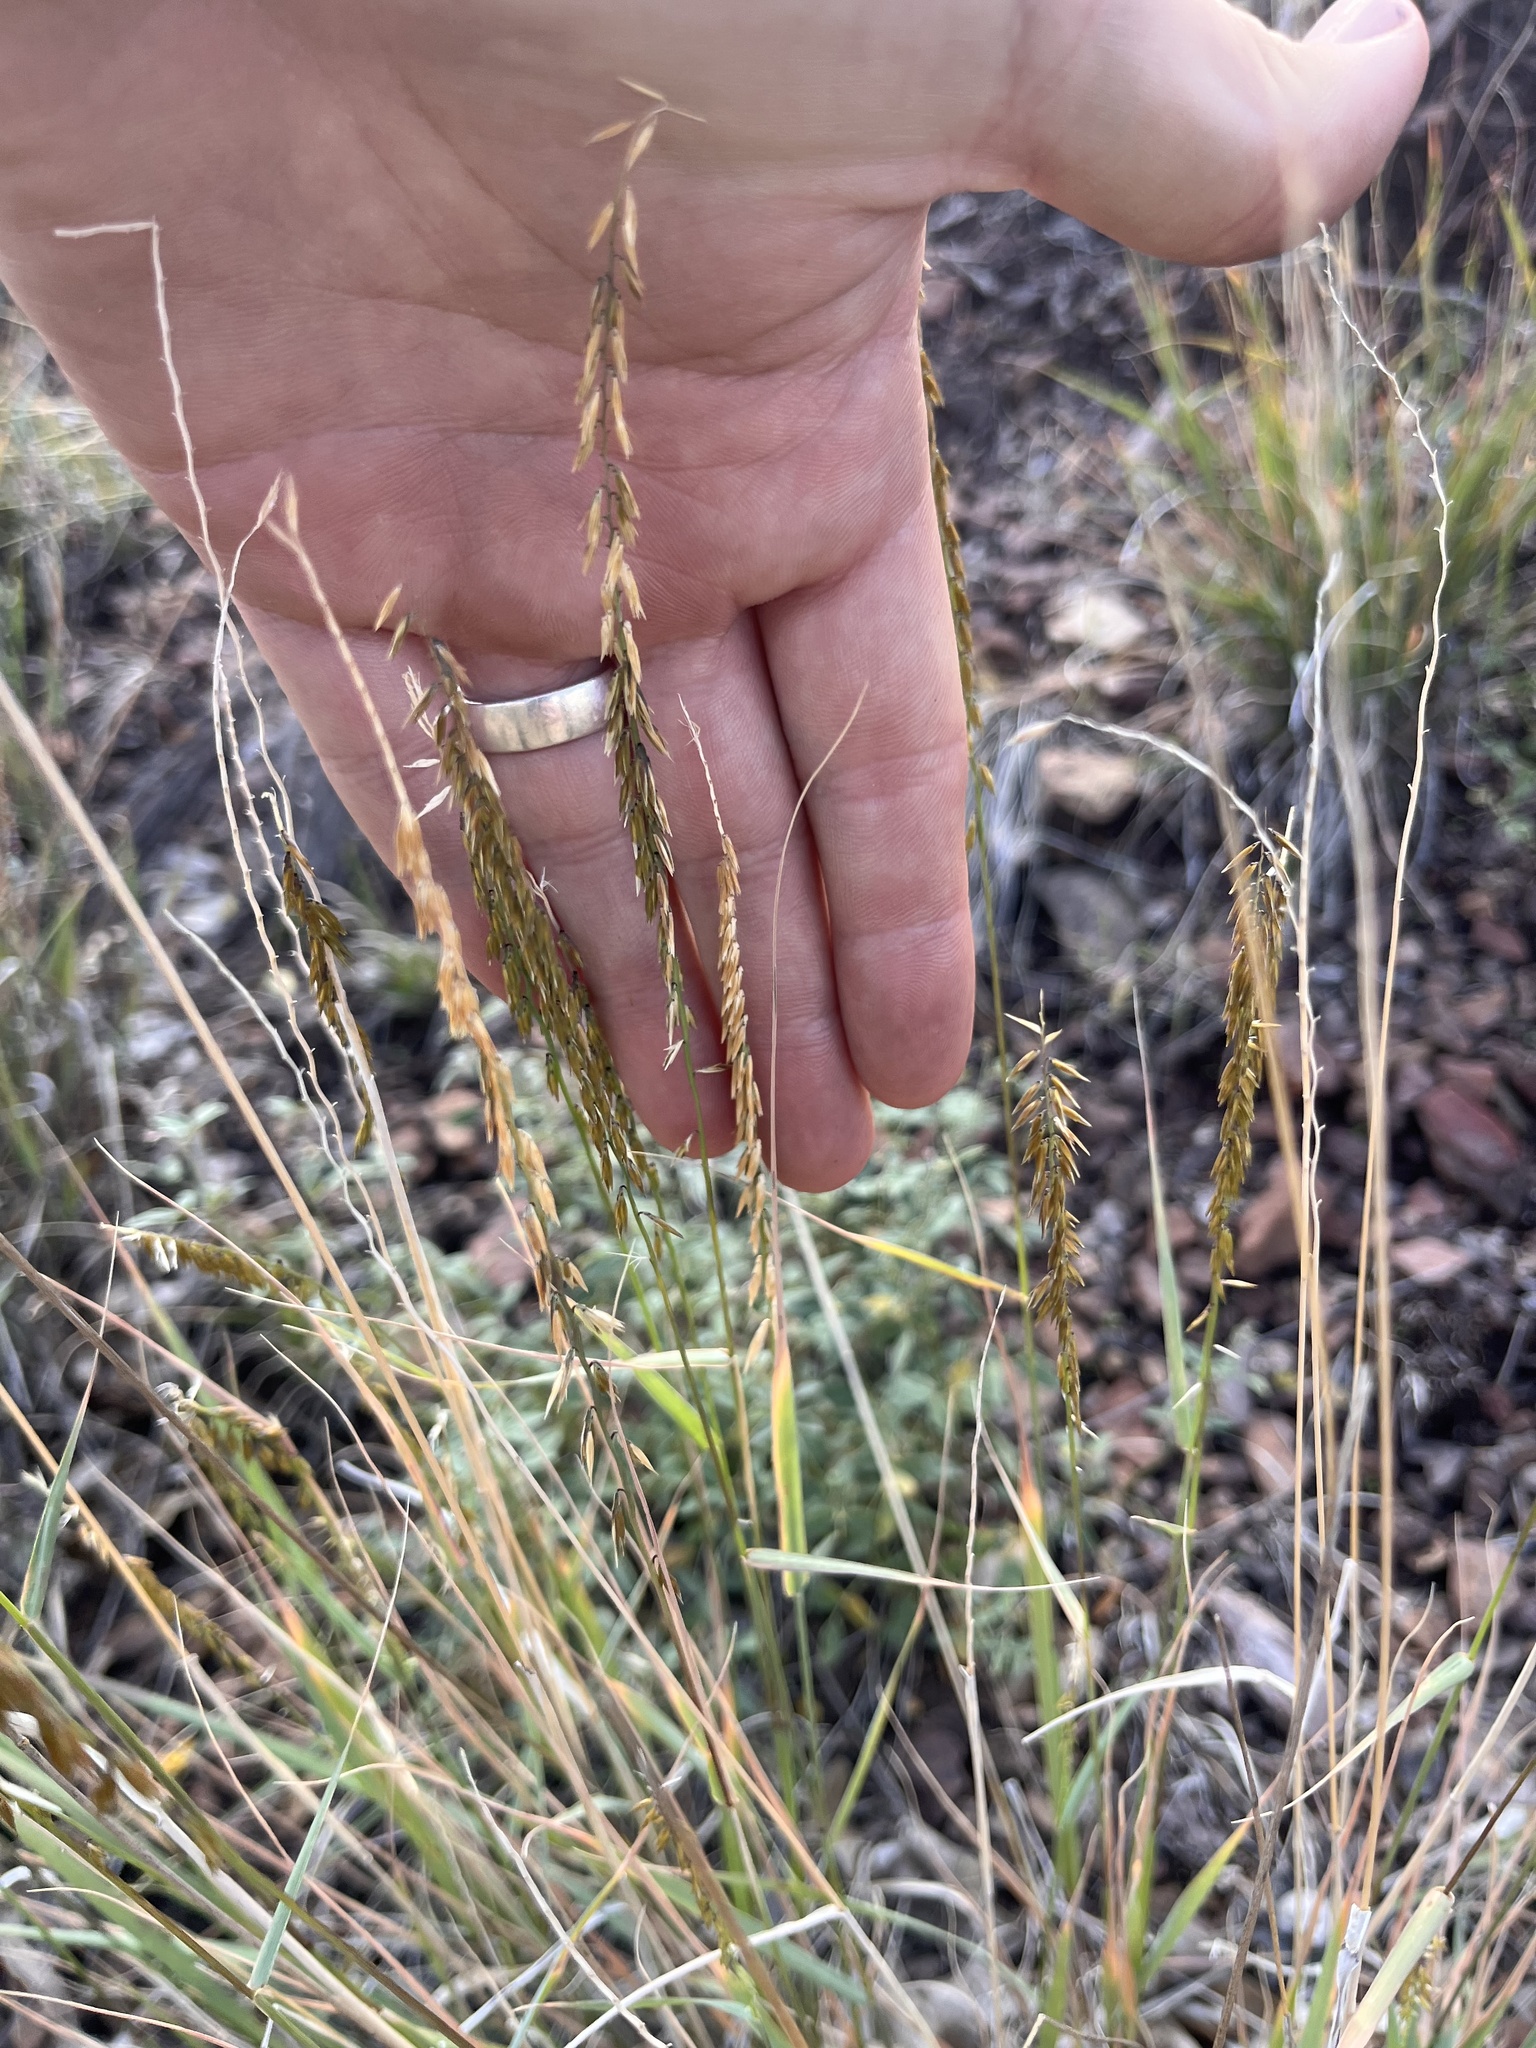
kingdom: Plantae
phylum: Tracheophyta
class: Liliopsida
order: Poales
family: Poaceae
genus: Bouteloua
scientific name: Bouteloua curtipendula
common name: Side-oats grama
